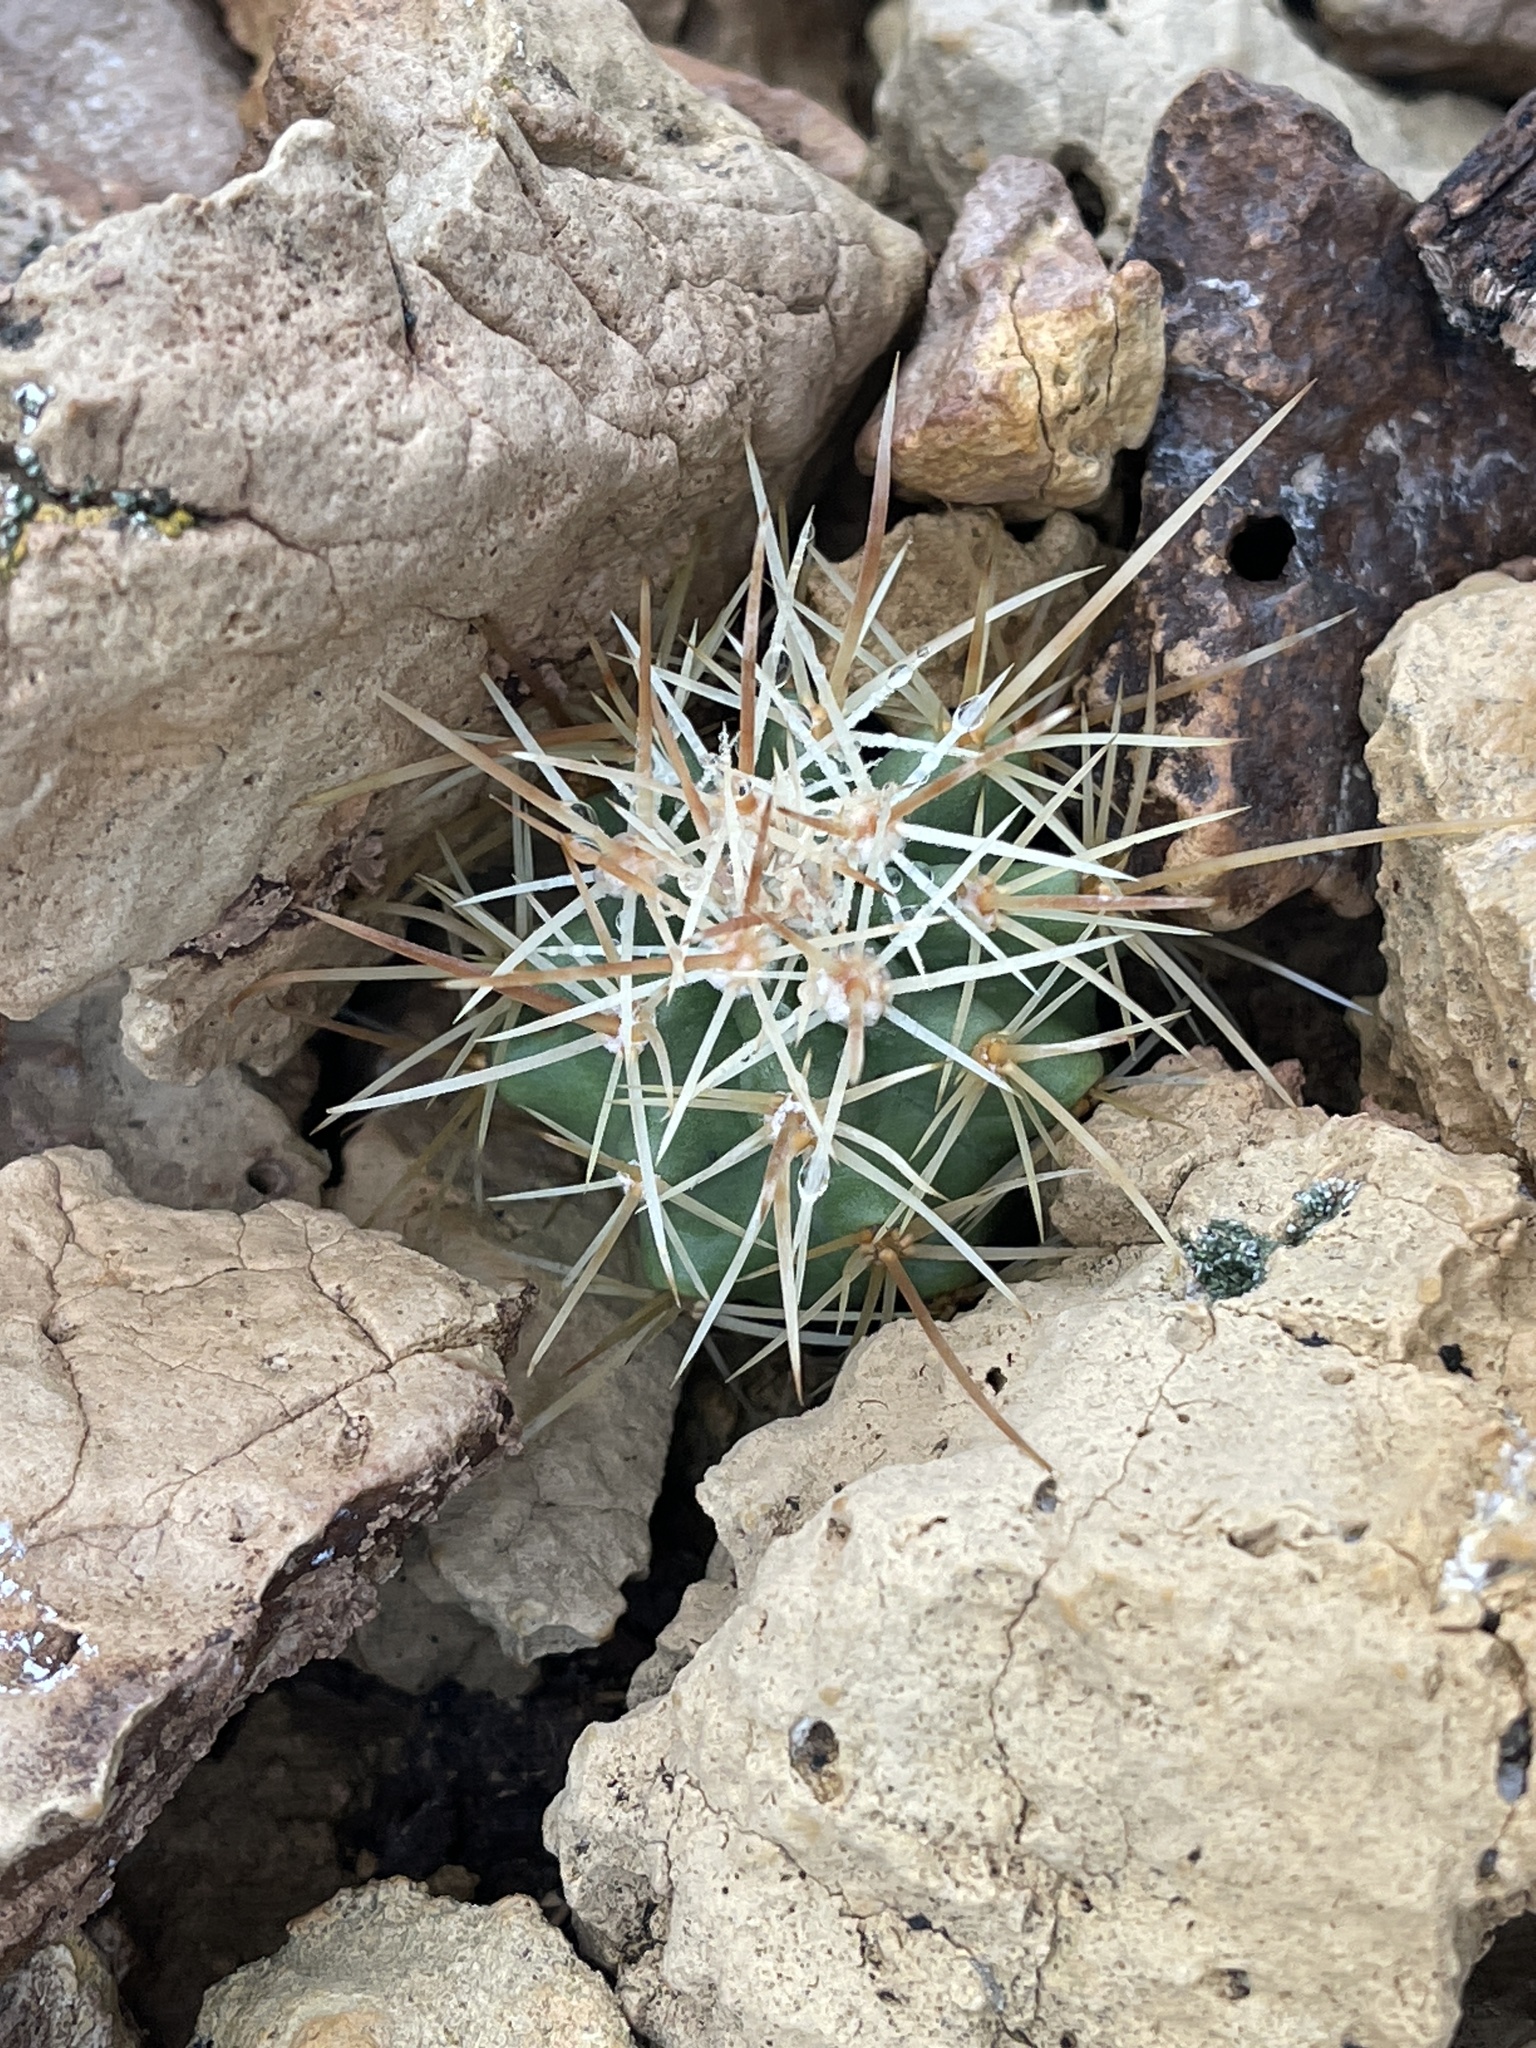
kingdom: Plantae
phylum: Tracheophyta
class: Magnoliopsida
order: Caryophyllales
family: Cactaceae
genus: Echinocereus
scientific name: Echinocereus triglochidiatus
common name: Claretcup hedgehog
